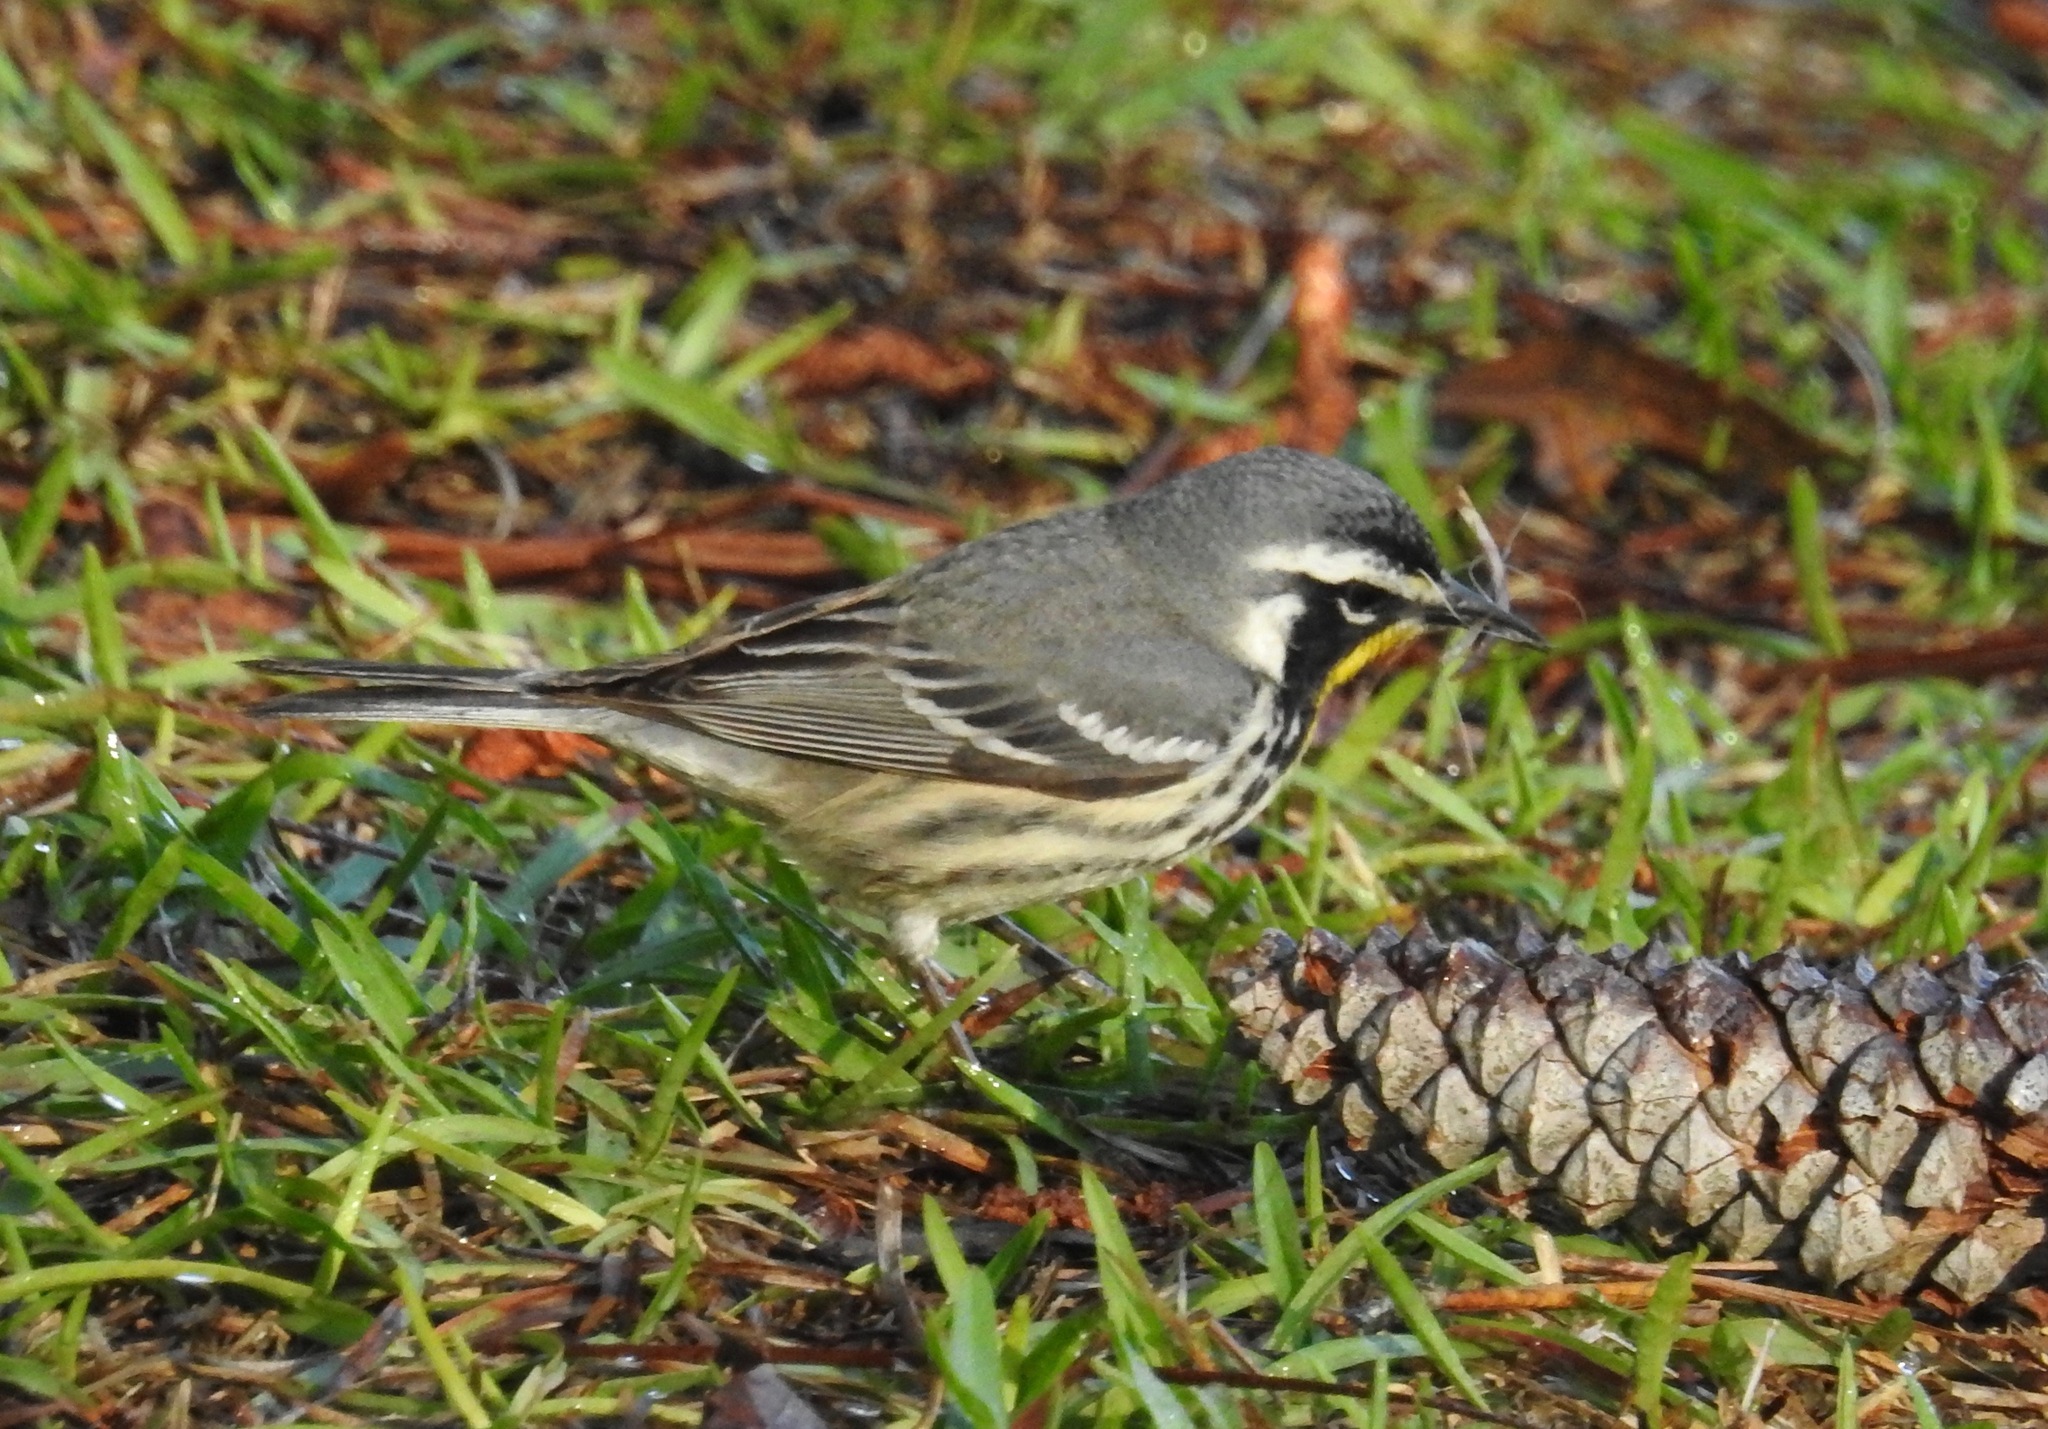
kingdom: Animalia
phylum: Chordata
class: Aves
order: Passeriformes
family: Parulidae
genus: Setophaga
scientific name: Setophaga dominica
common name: Yellow-throated warbler
